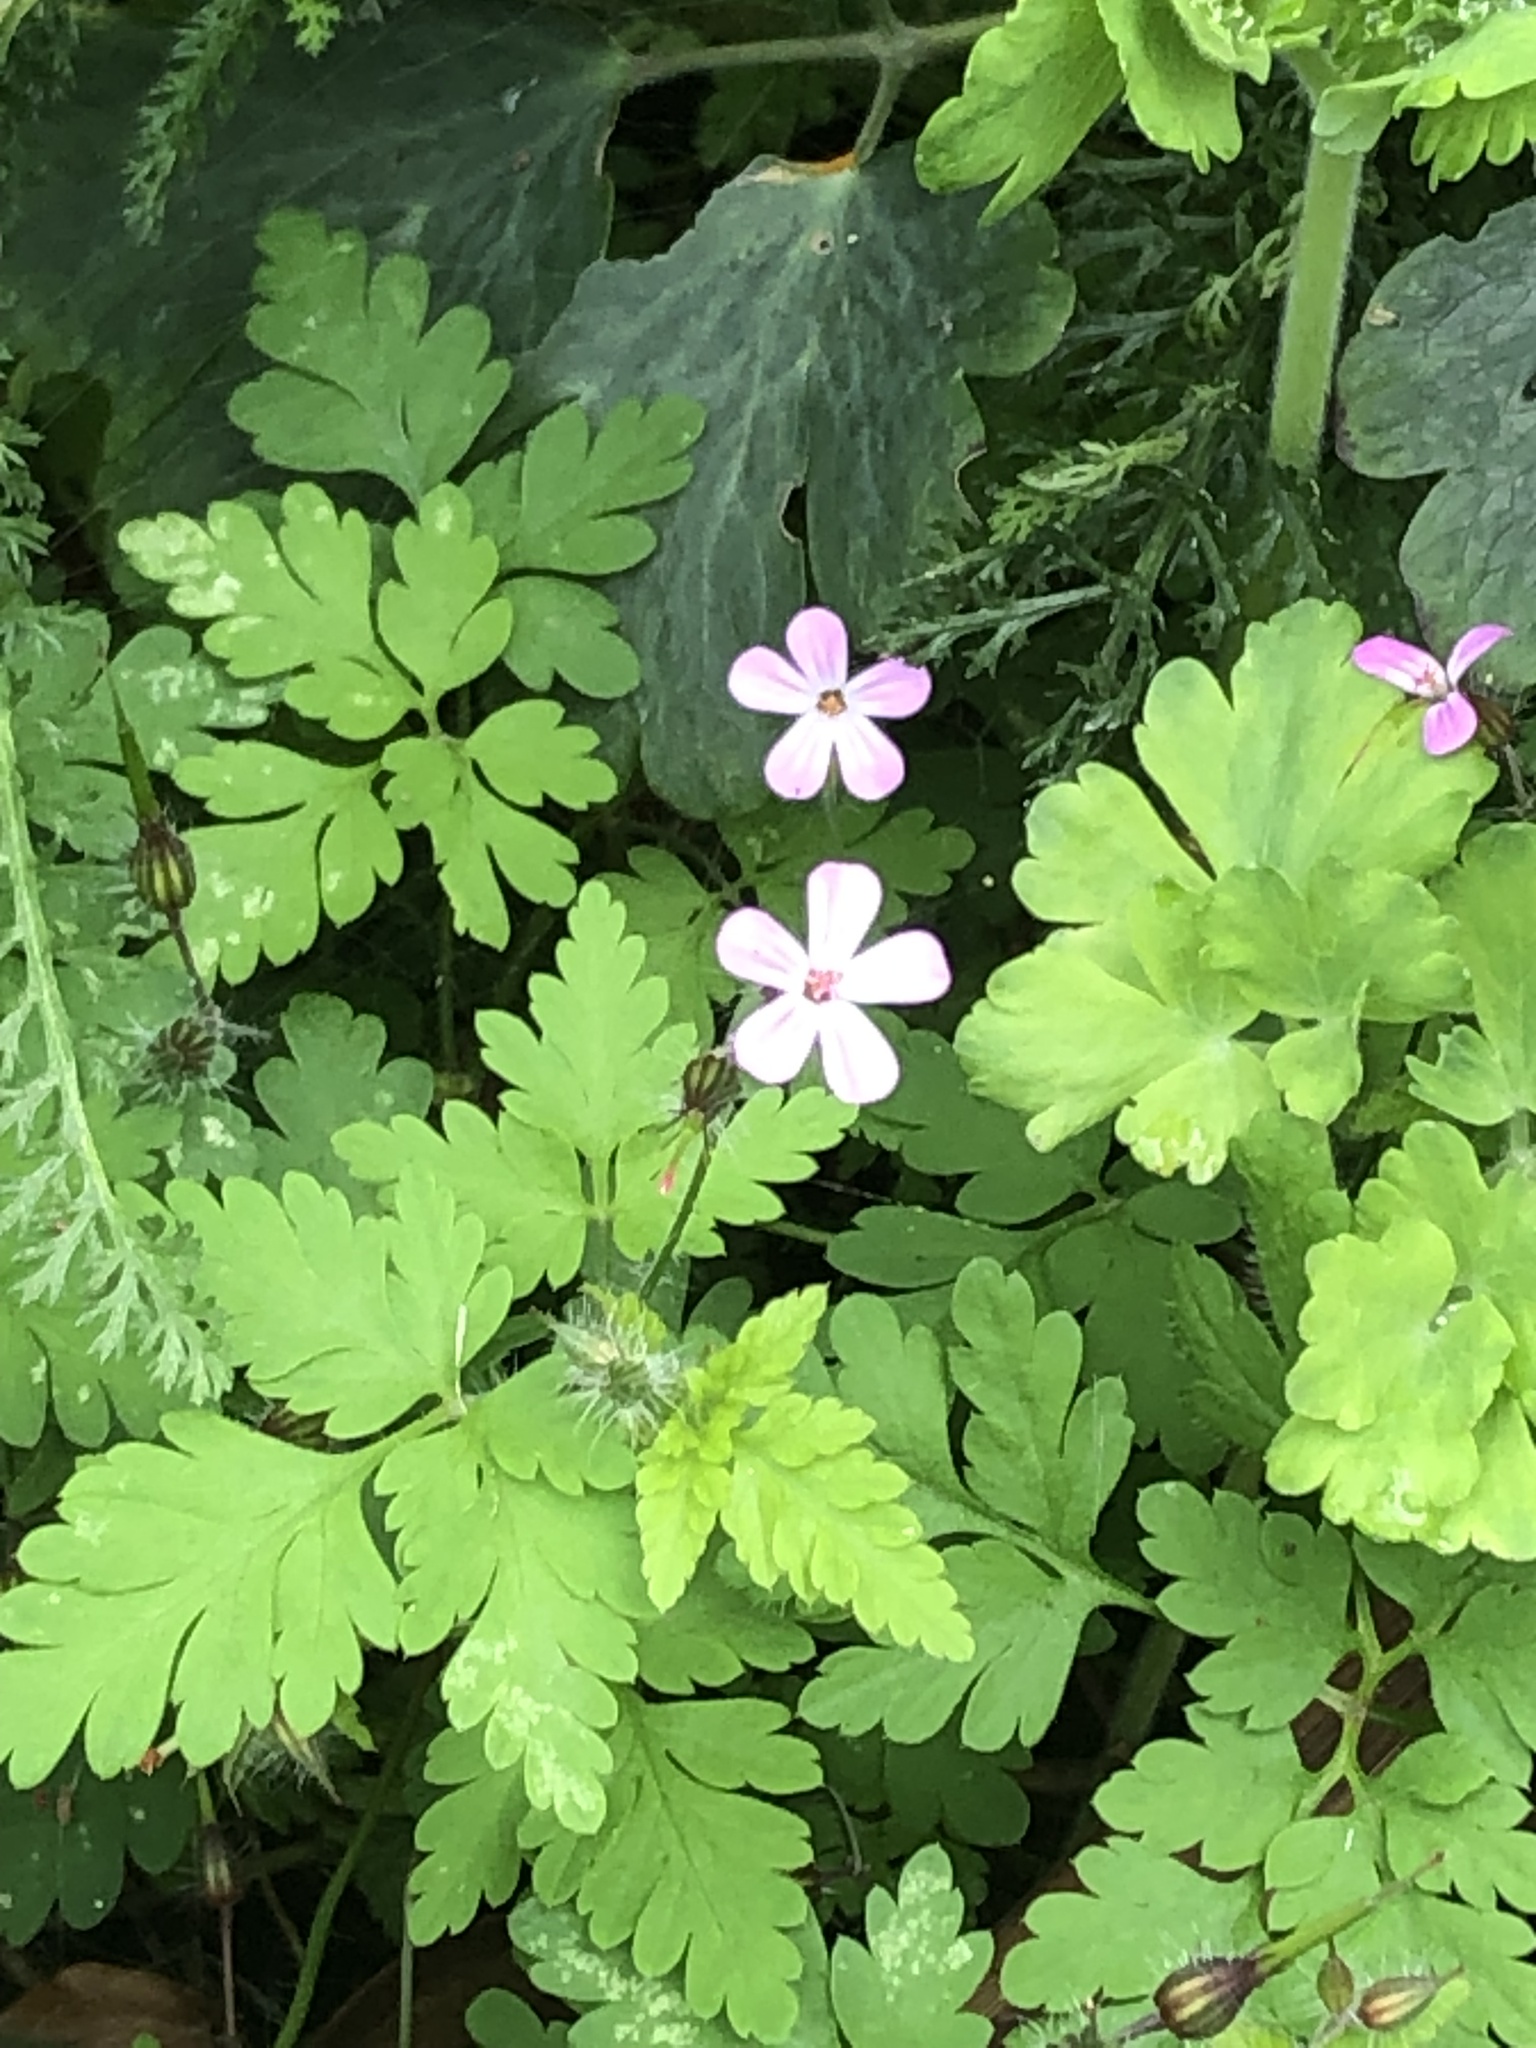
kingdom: Plantae
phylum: Tracheophyta
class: Magnoliopsida
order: Geraniales
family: Geraniaceae
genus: Geranium
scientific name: Geranium robertianum
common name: Herb-robert
